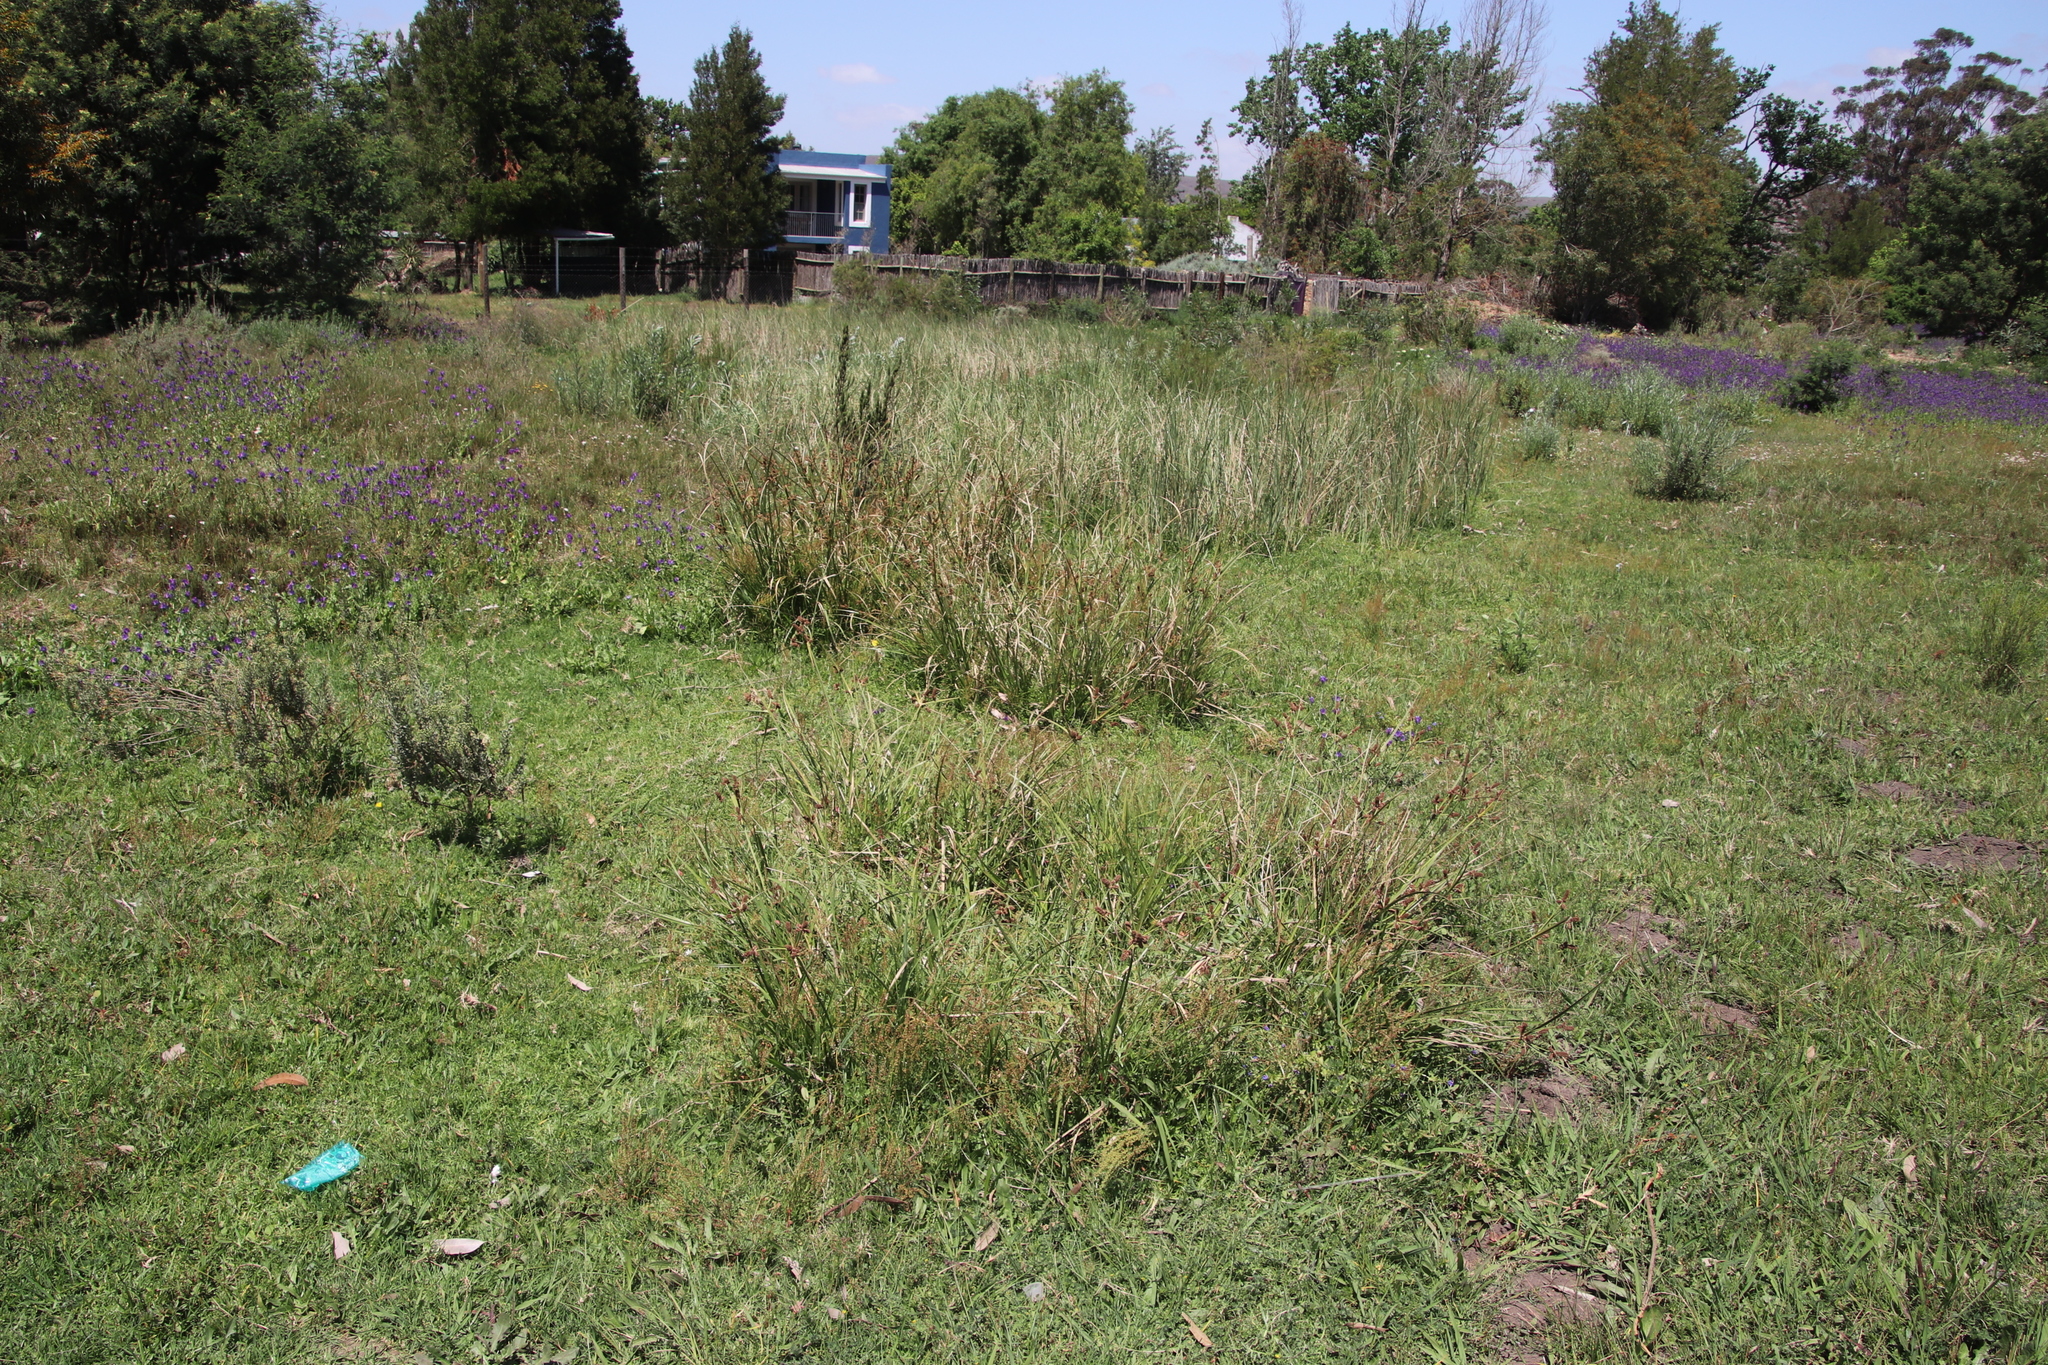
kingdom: Plantae
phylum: Tracheophyta
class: Liliopsida
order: Poales
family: Cyperaceae
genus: Cyperus
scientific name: Cyperus thunbergii
